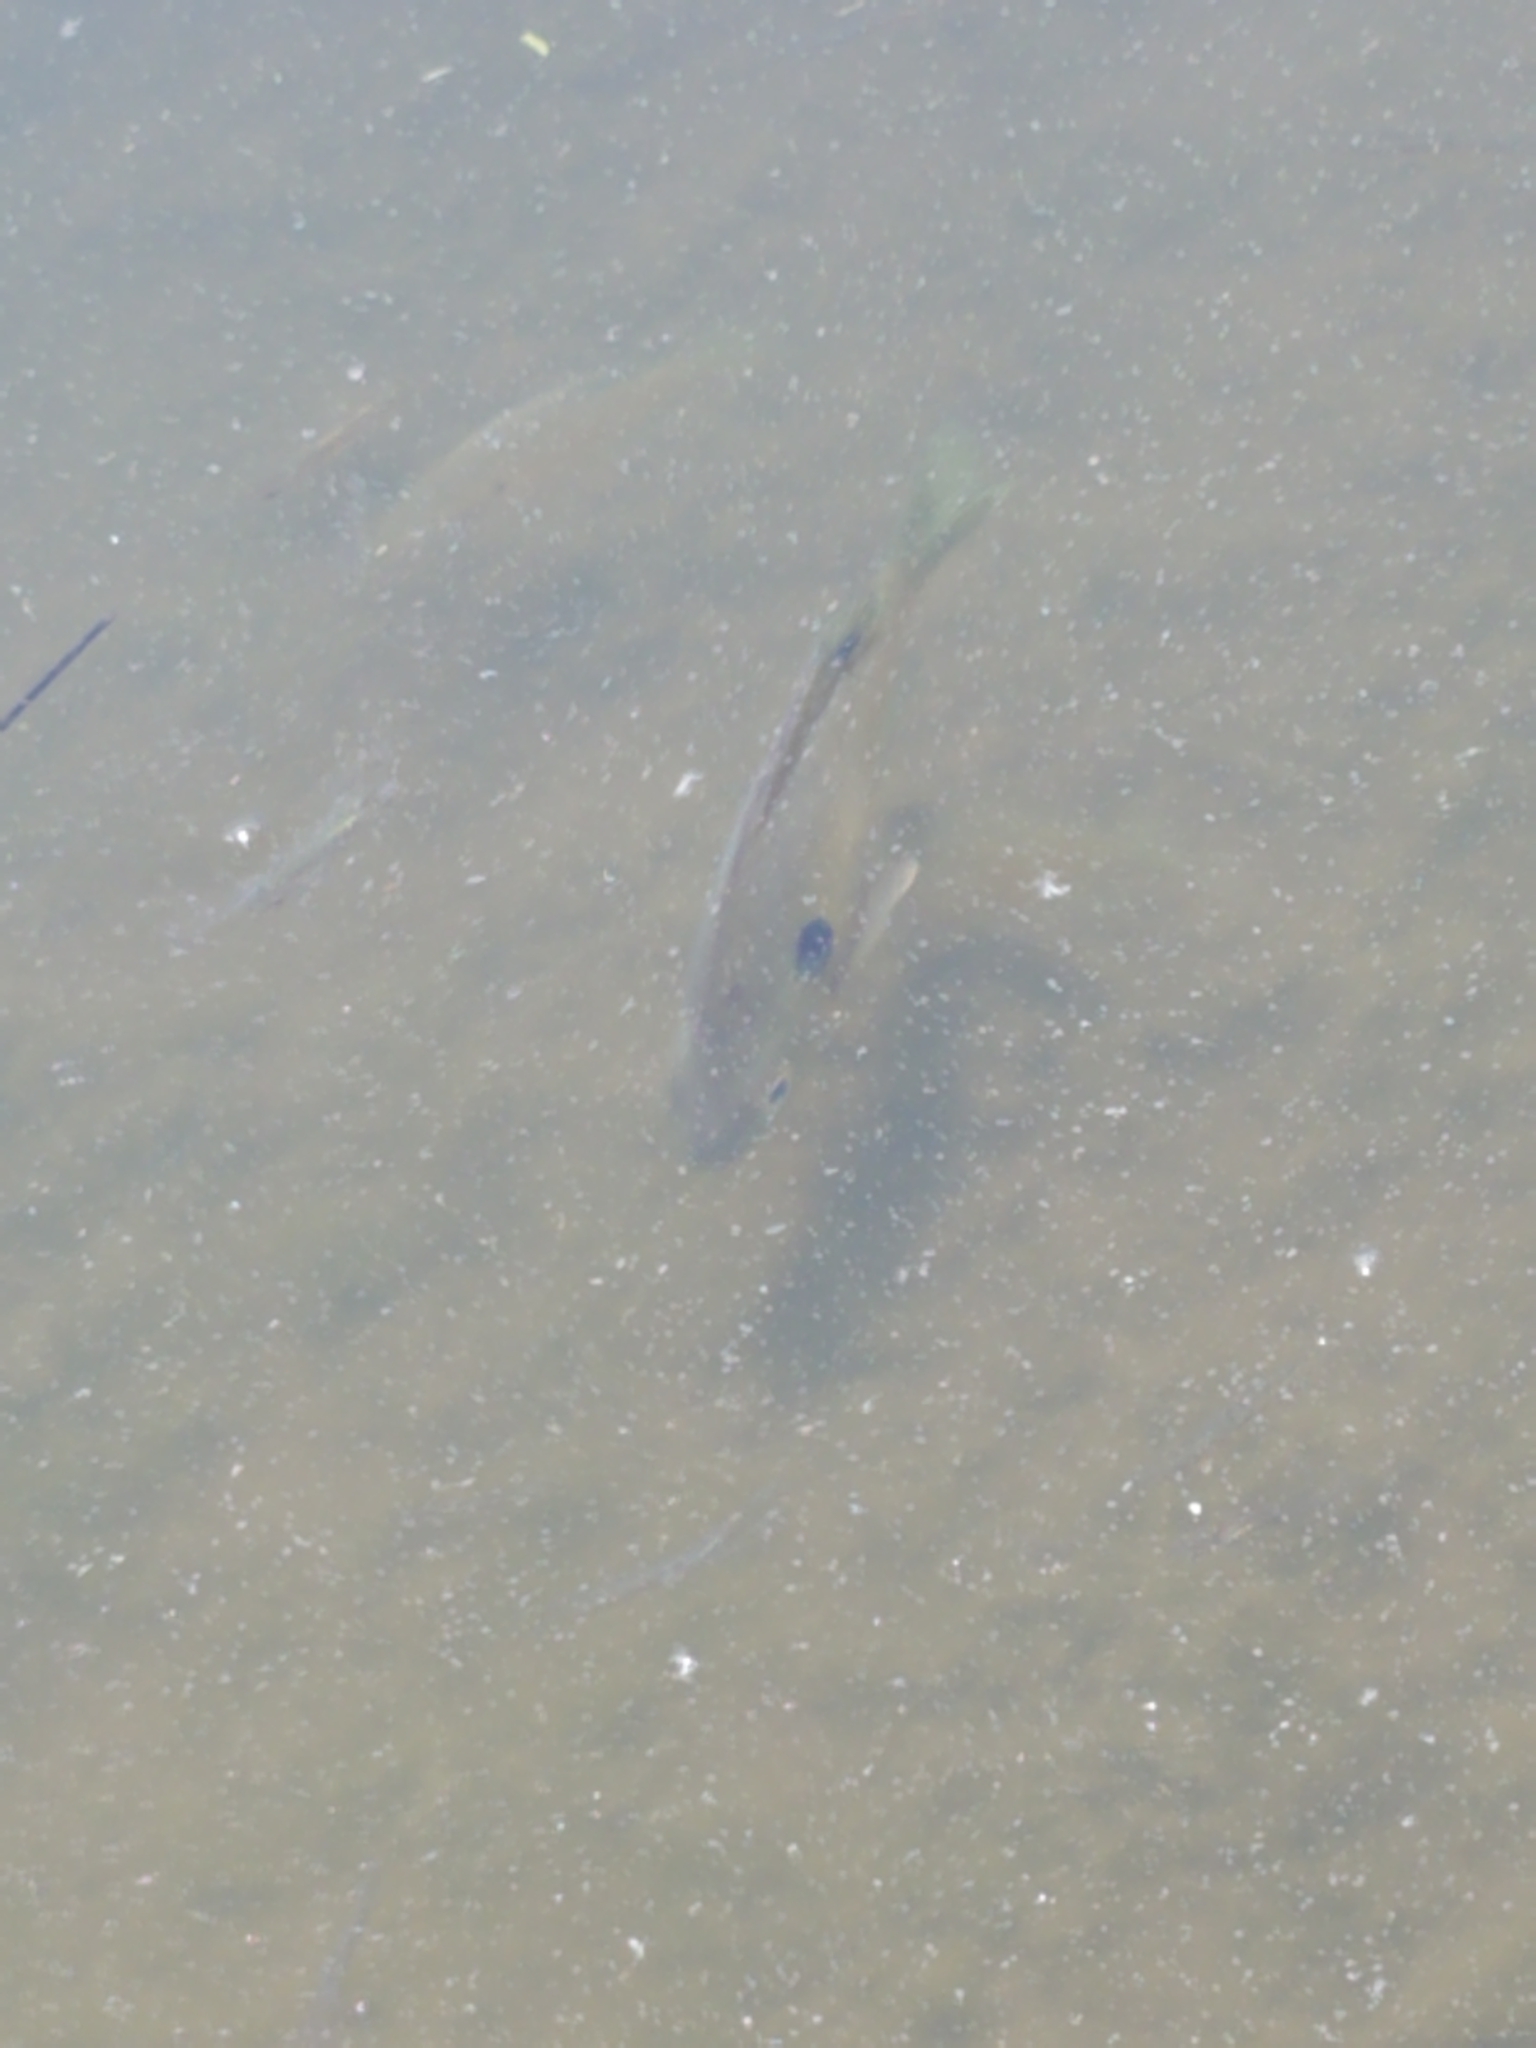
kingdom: Animalia
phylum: Chordata
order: Perciformes
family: Centrarchidae
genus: Lepomis
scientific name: Lepomis macrochirus
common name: Bluegill
